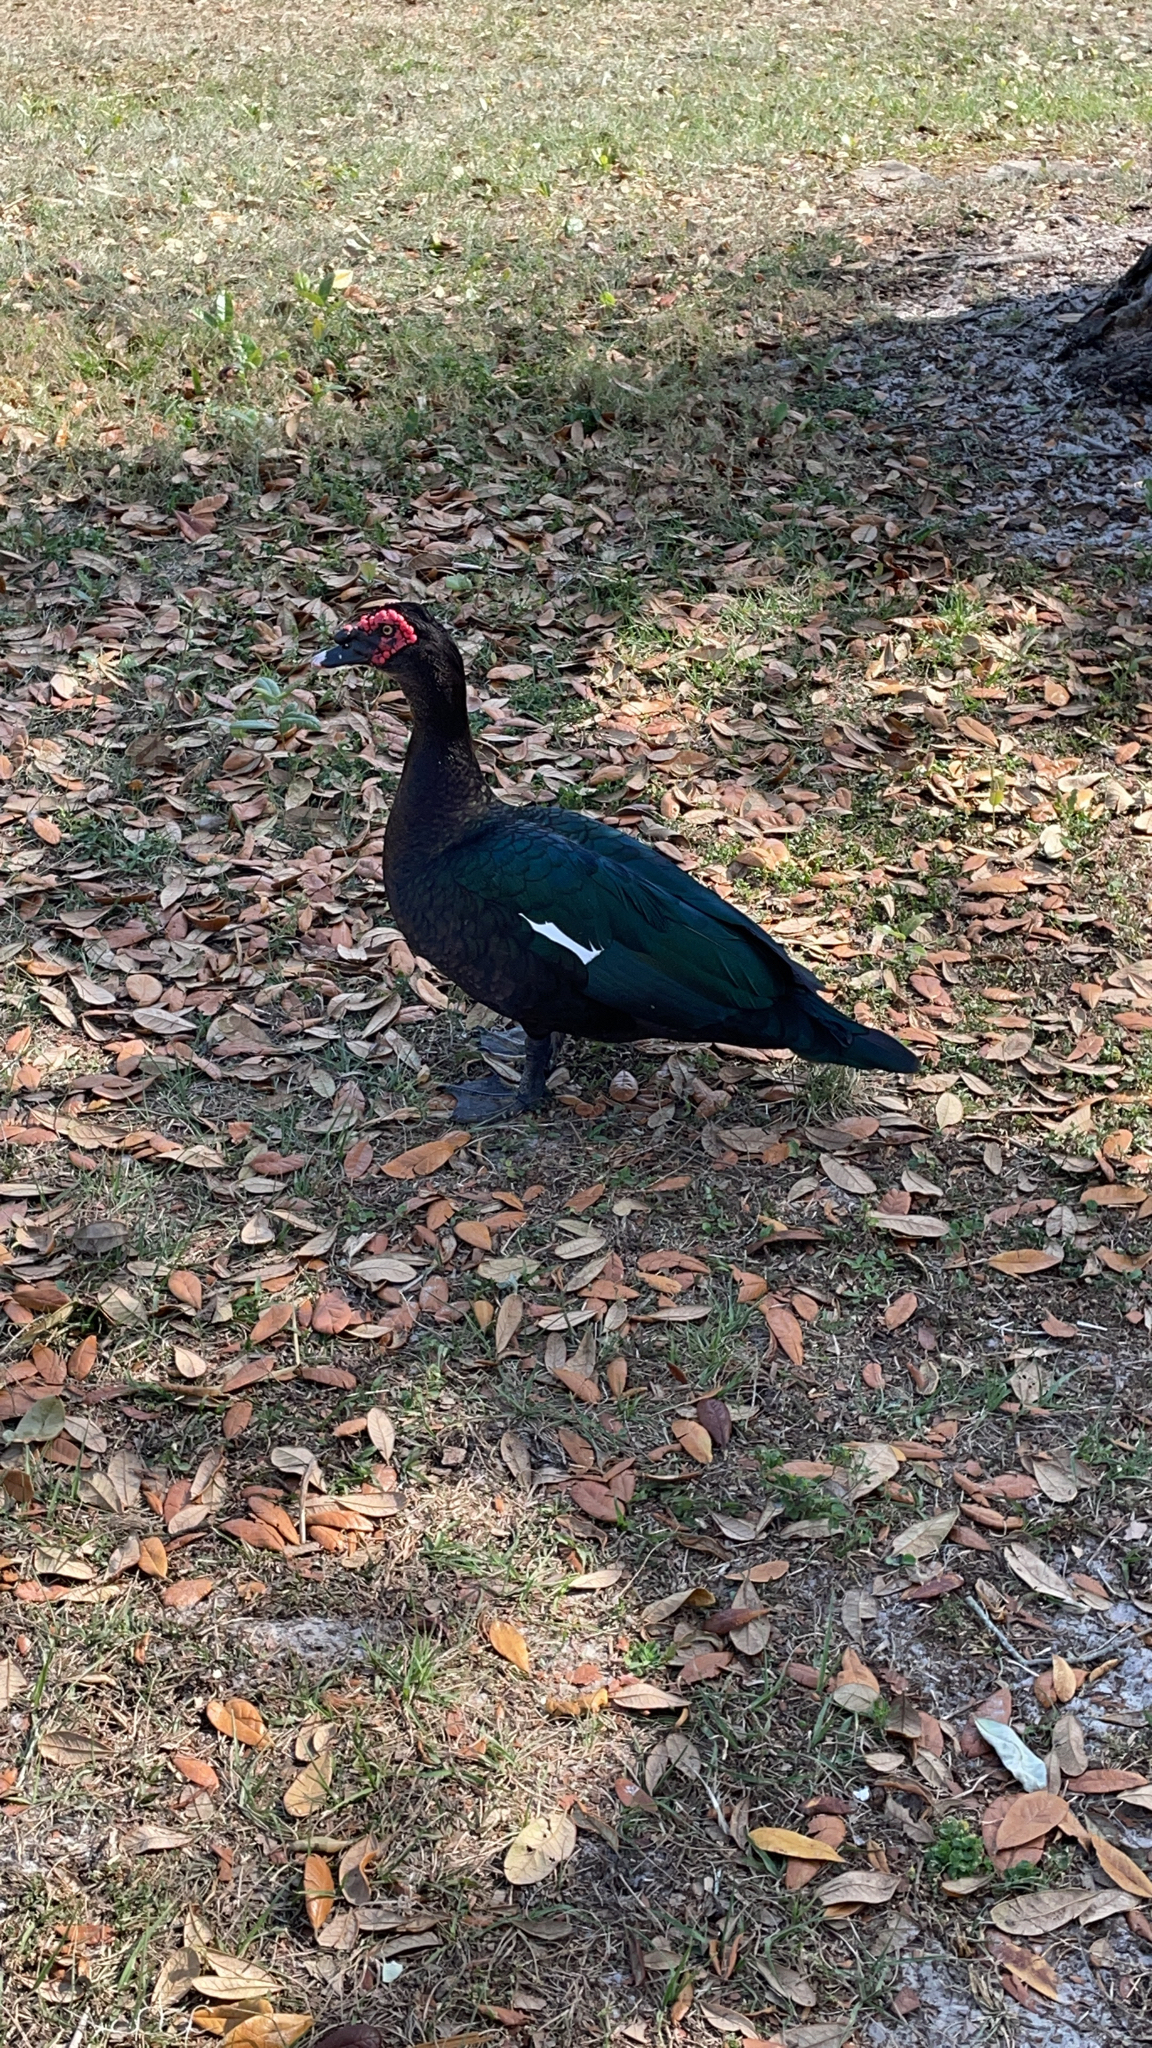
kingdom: Animalia
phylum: Chordata
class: Aves
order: Anseriformes
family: Anatidae
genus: Cairina
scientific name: Cairina moschata
